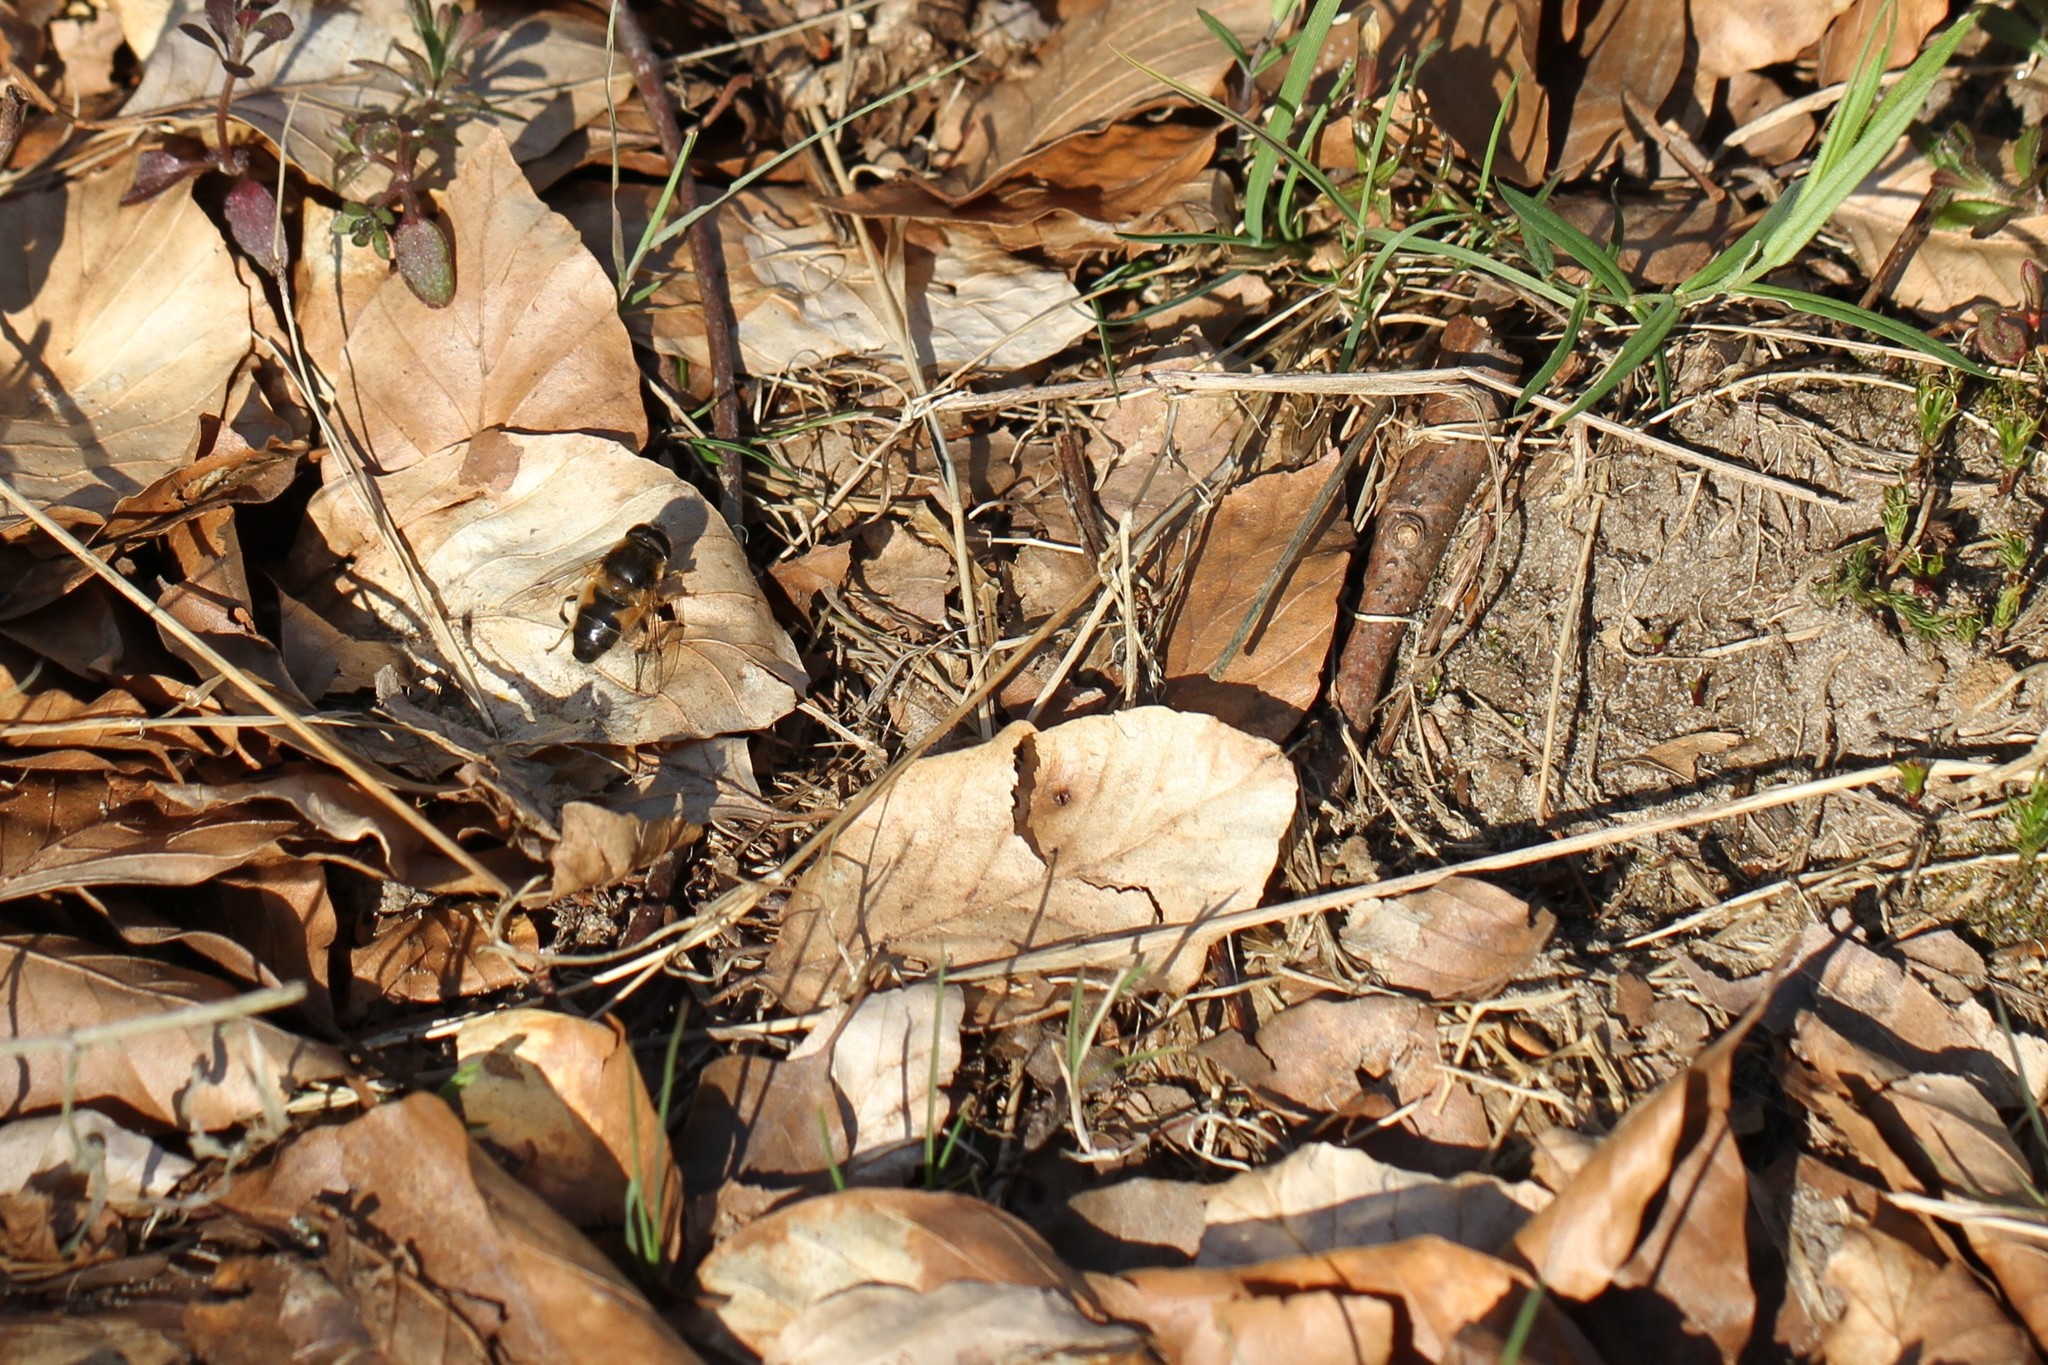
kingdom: Animalia
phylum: Arthropoda
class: Insecta
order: Diptera
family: Syrphidae
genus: Eristalis
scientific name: Eristalis pertinax
